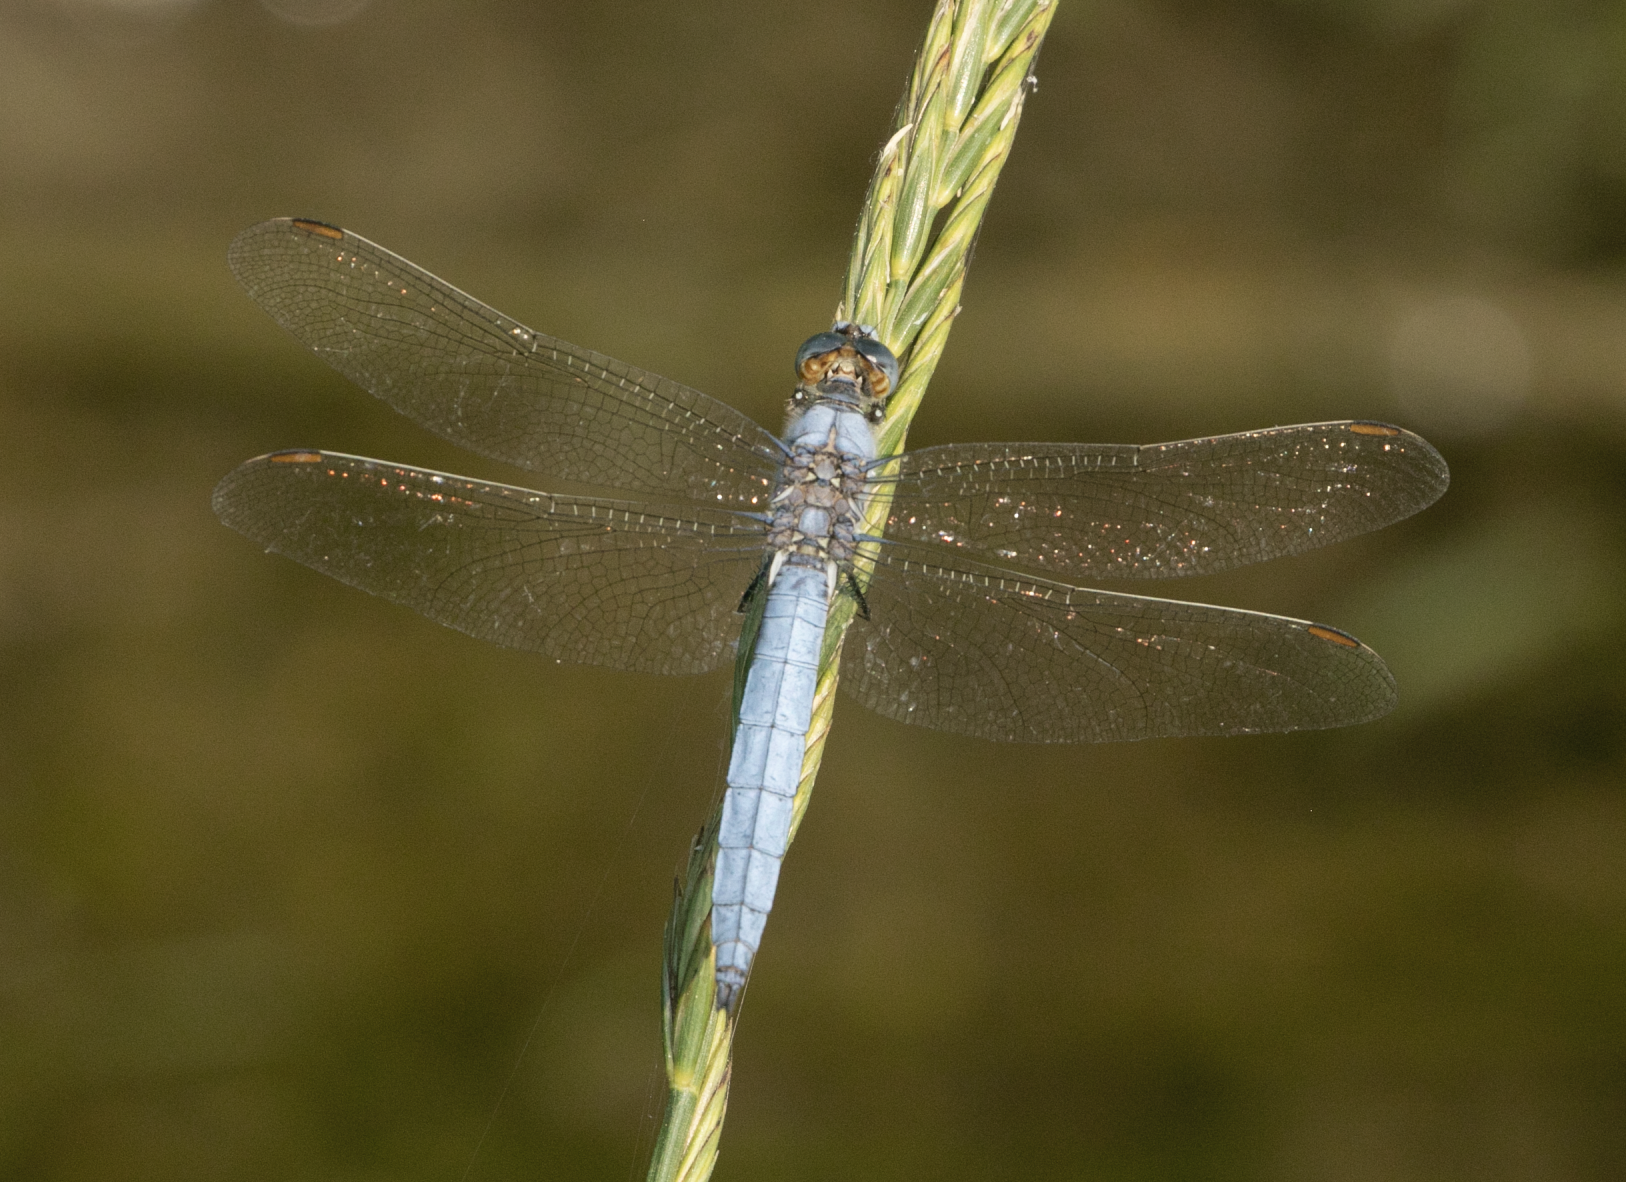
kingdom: Animalia
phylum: Arthropoda
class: Insecta
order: Odonata
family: Libellulidae
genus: Orthetrum
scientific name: Orthetrum brunneum
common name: Southern skimmer
